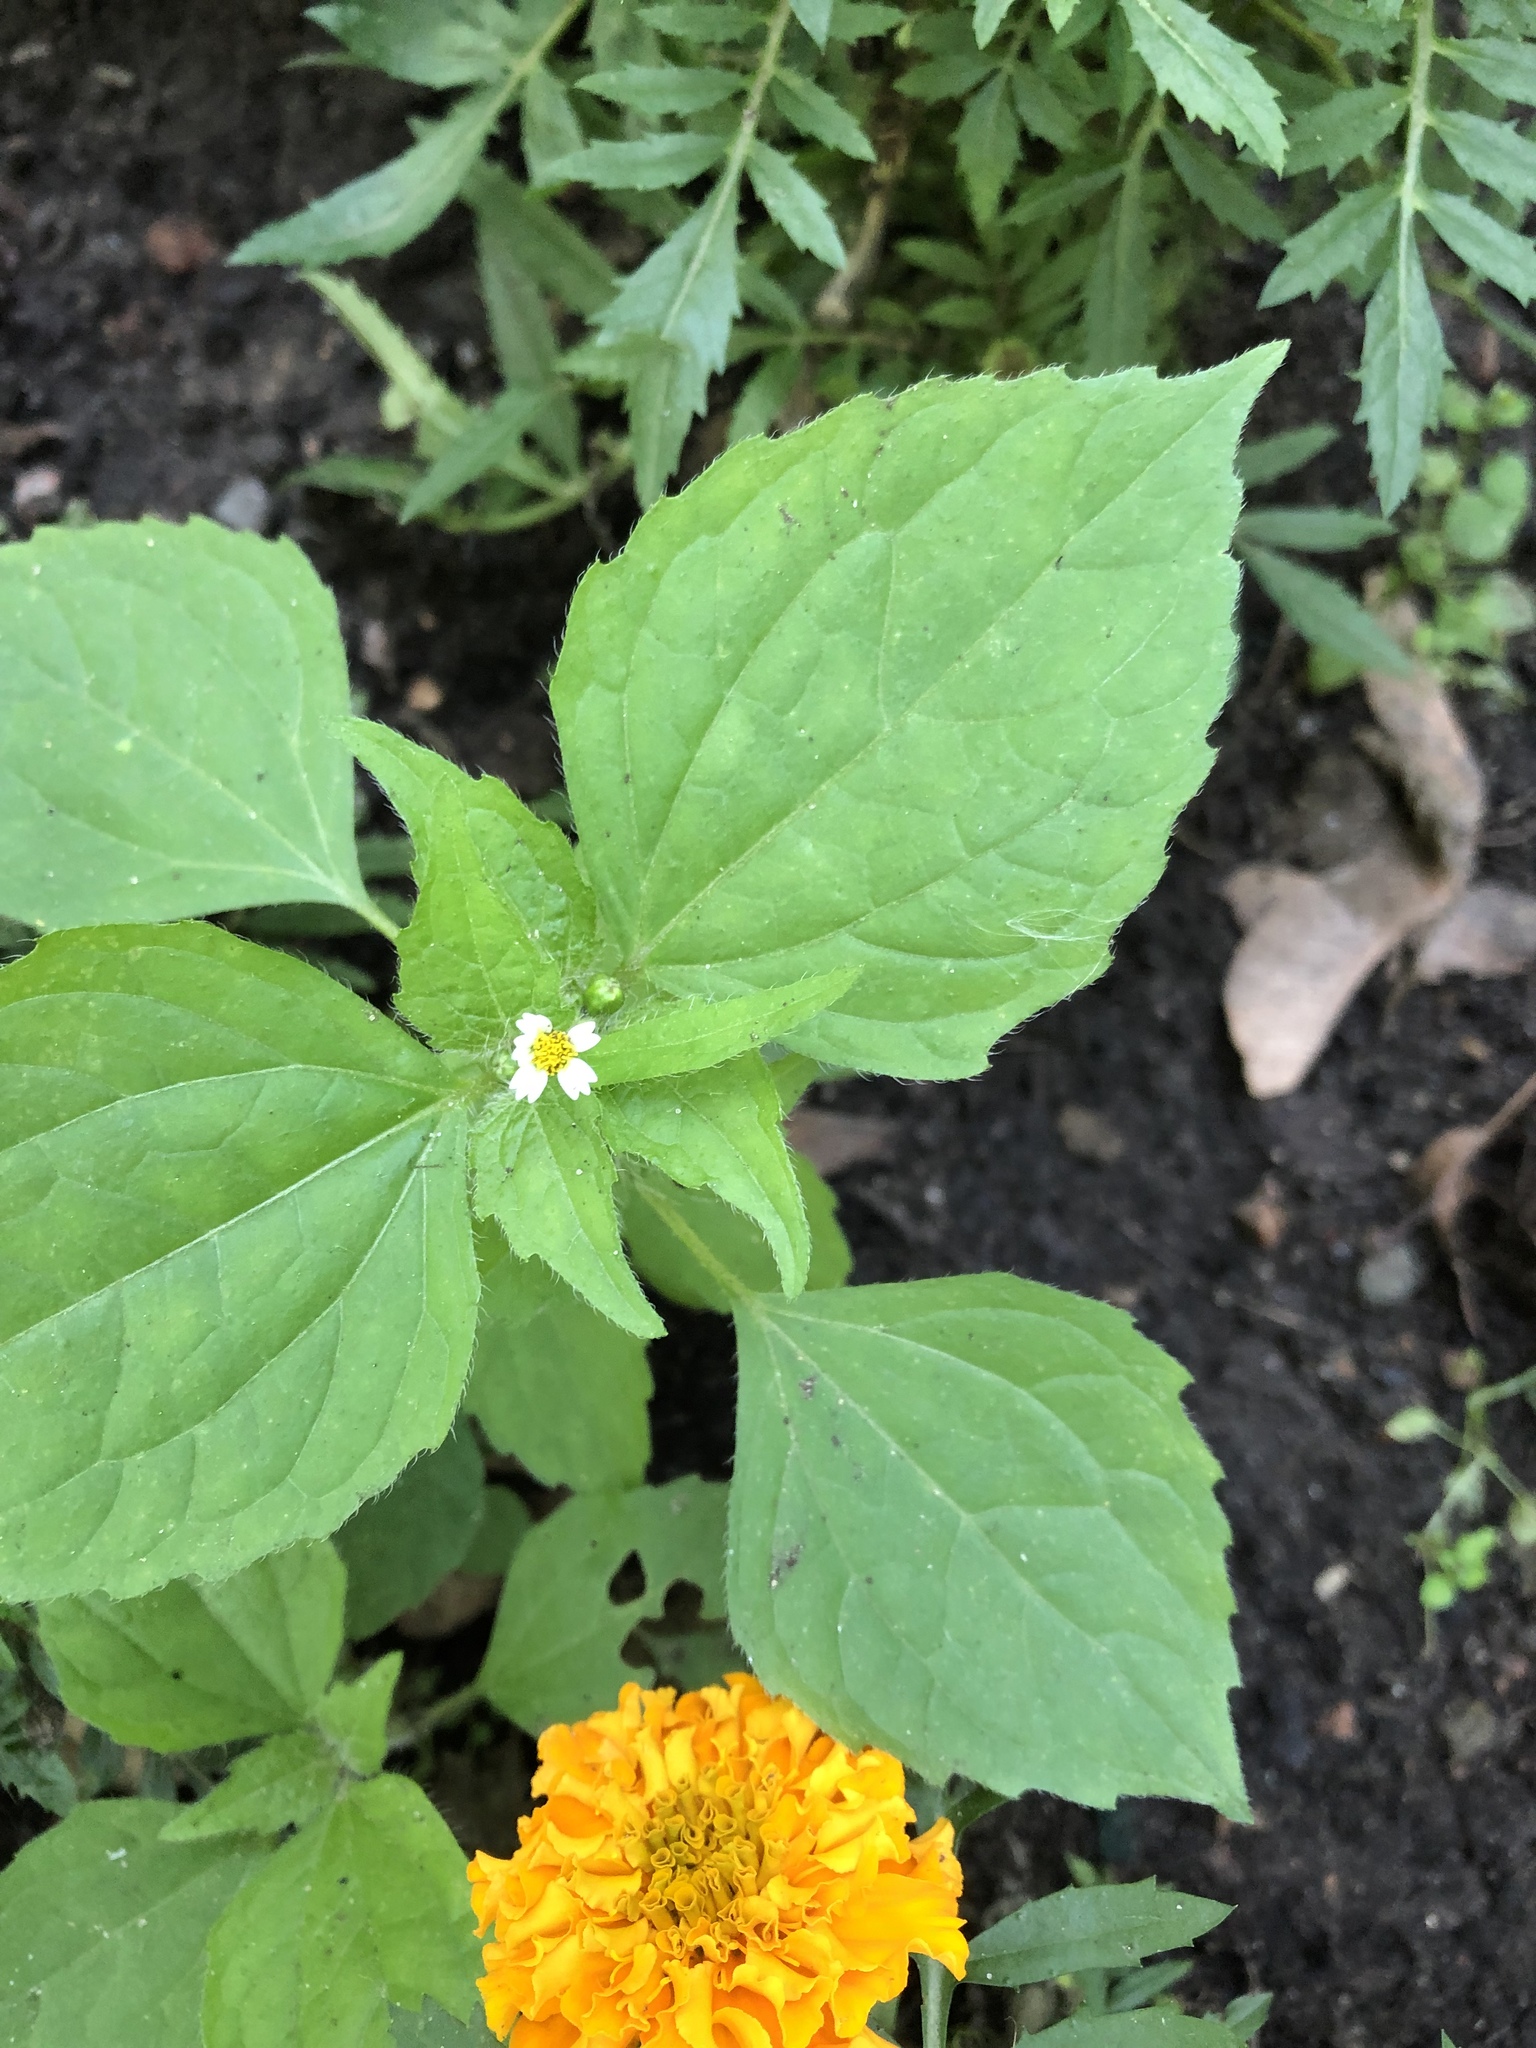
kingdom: Plantae
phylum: Tracheophyta
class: Magnoliopsida
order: Asterales
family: Asteraceae
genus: Galinsoga
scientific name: Galinsoga quadriradiata
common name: Shaggy soldier
